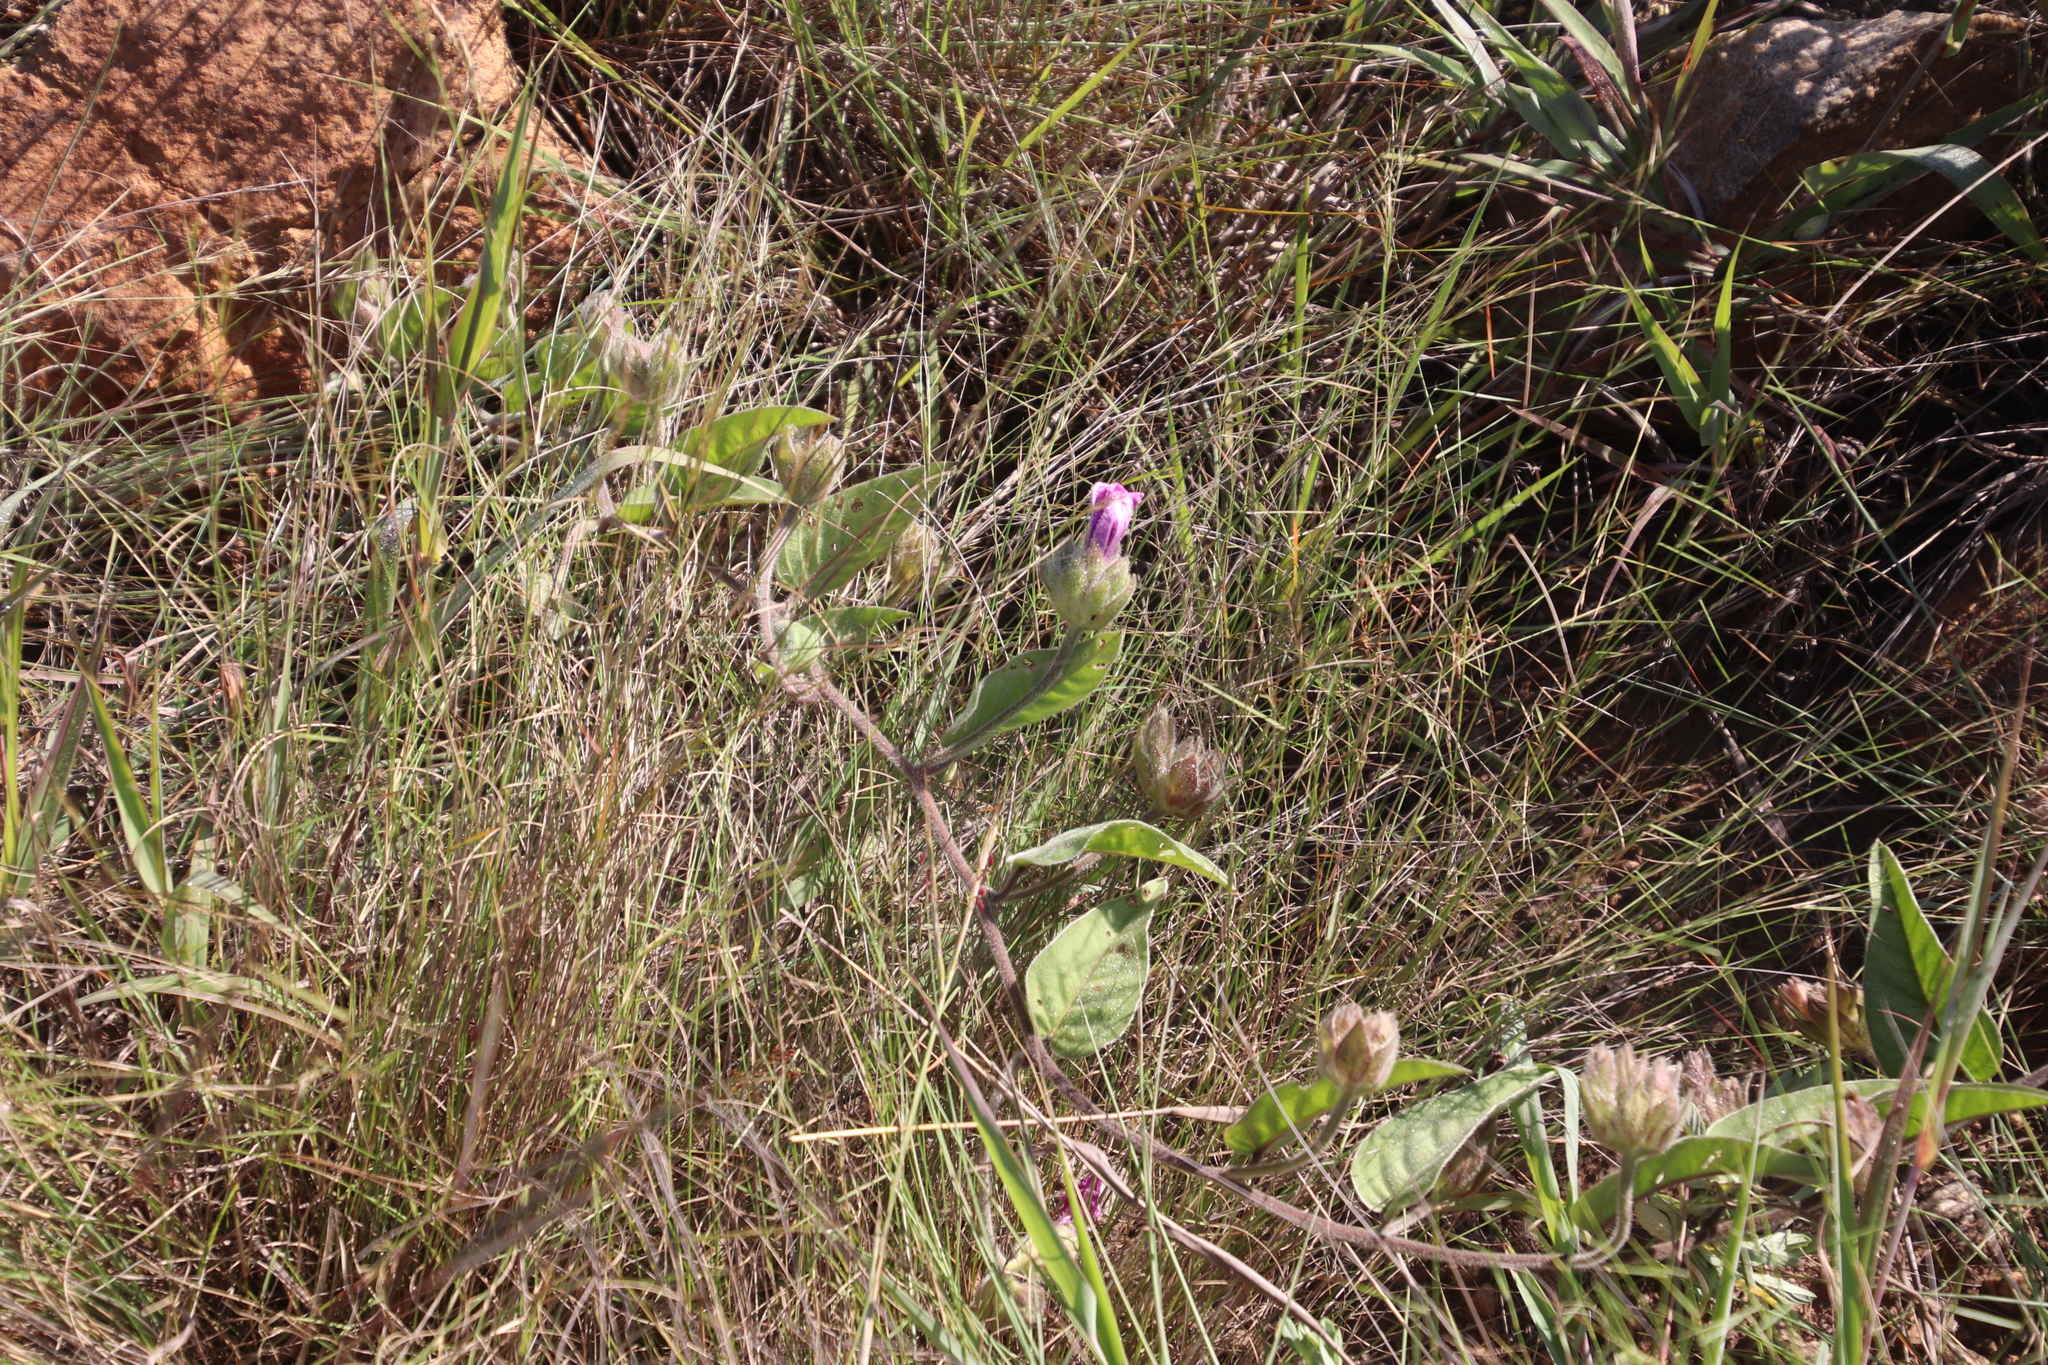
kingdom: Plantae
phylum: Tracheophyta
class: Magnoliopsida
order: Solanales
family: Convolvulaceae
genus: Ipomoea
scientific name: Ipomoea oblongata
